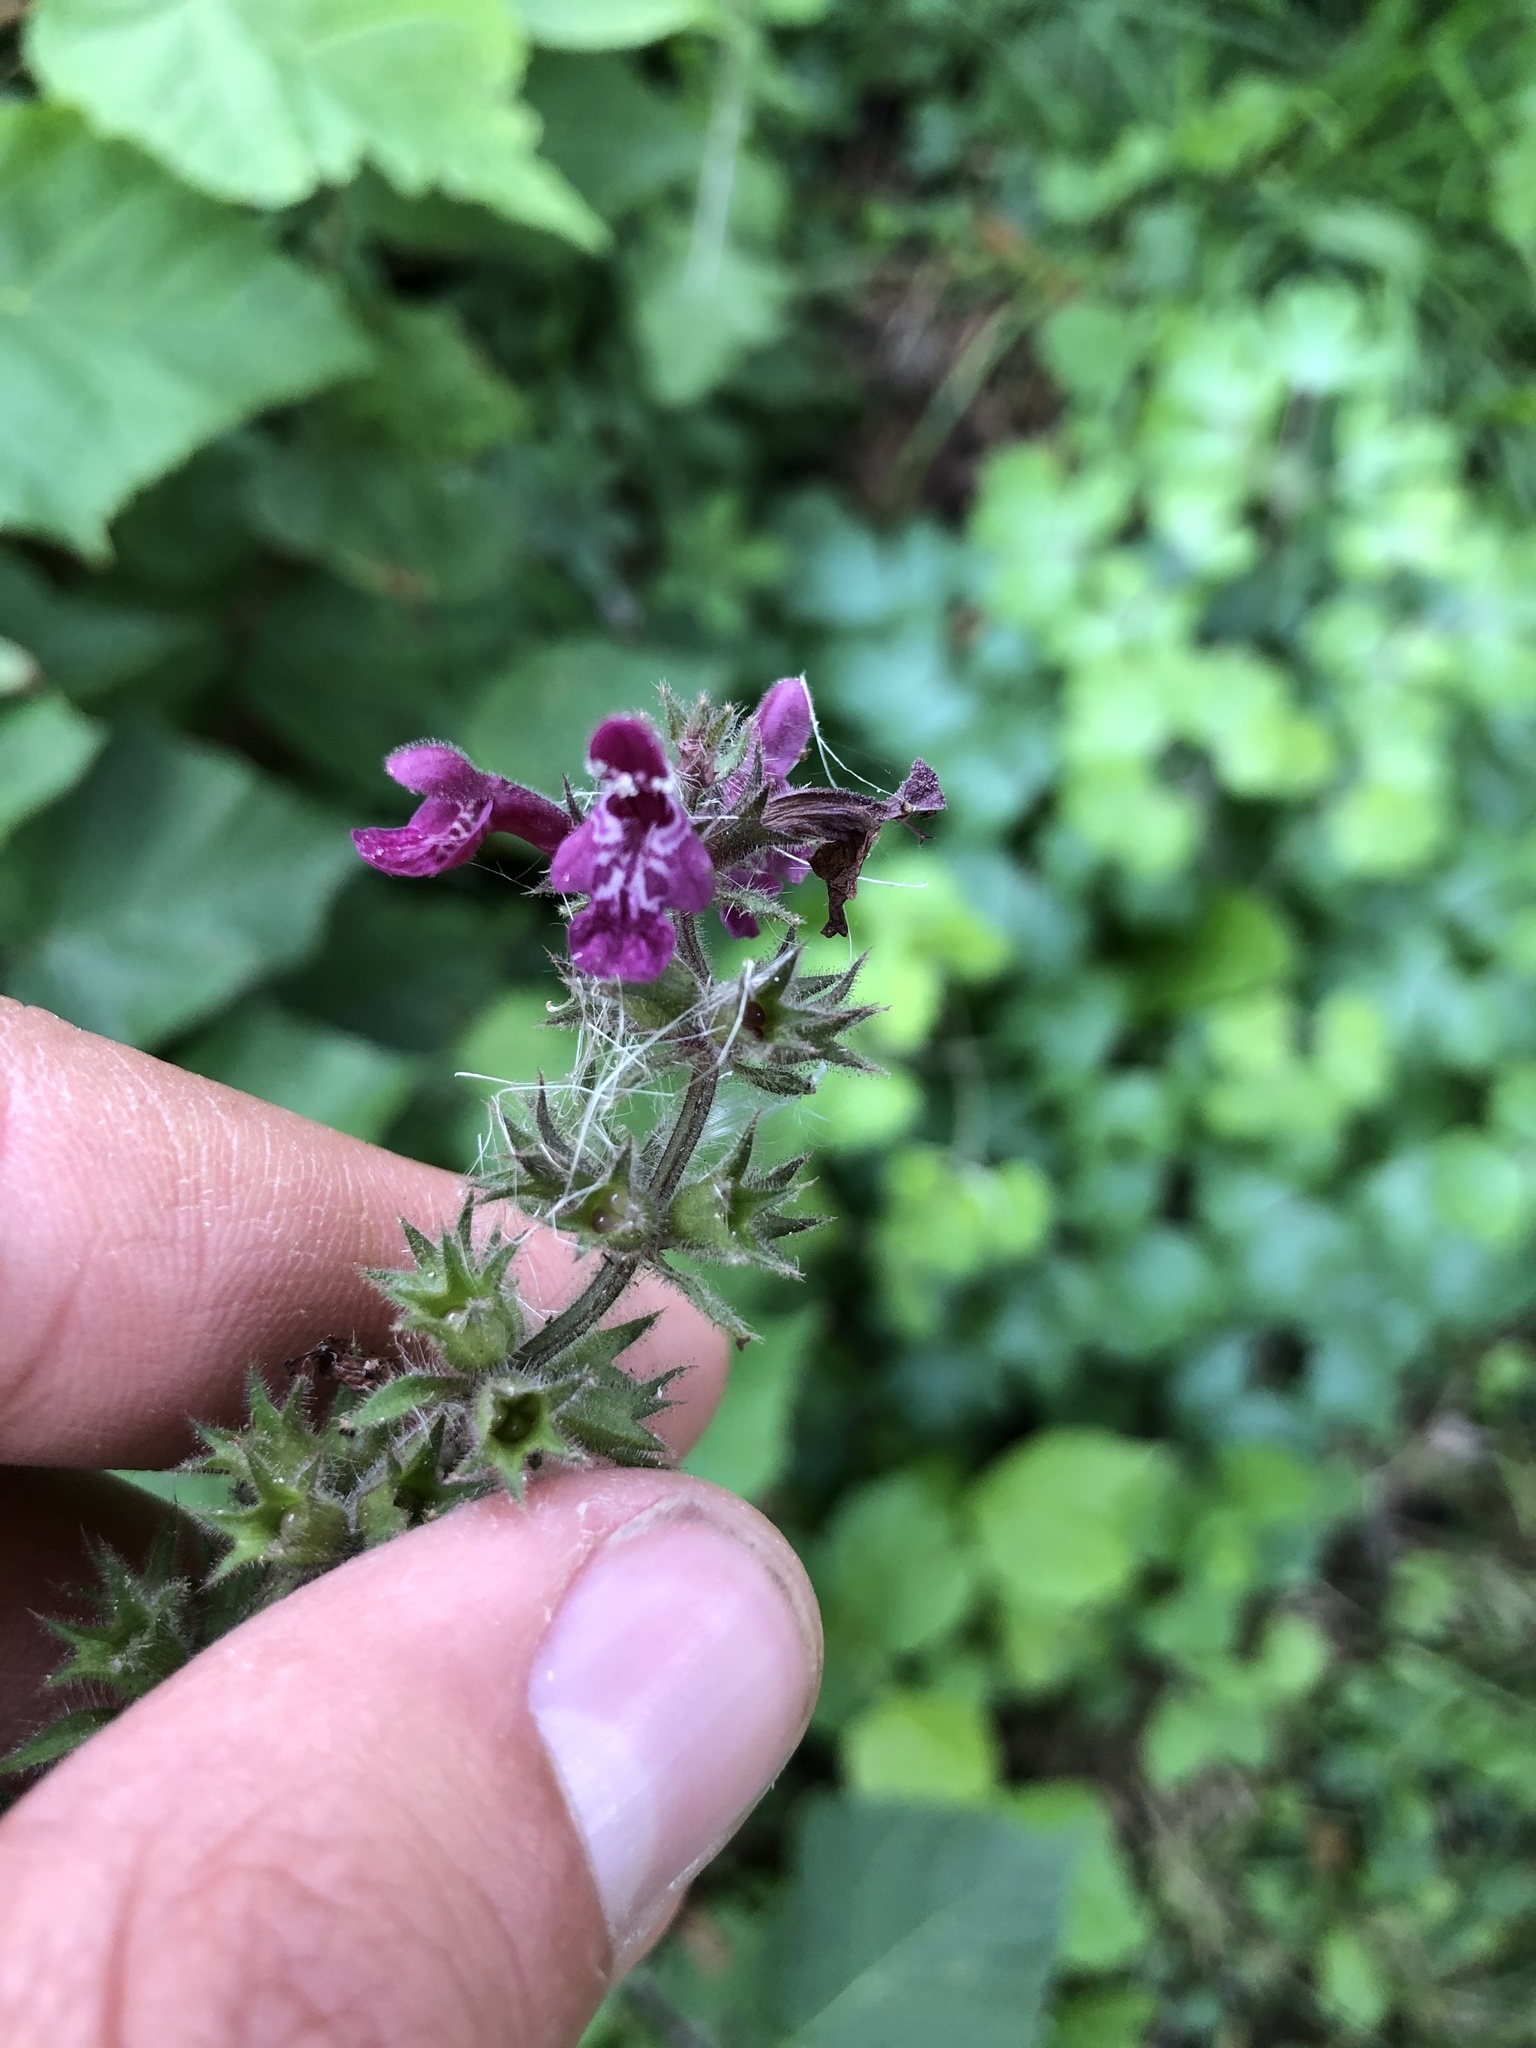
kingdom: Plantae
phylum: Tracheophyta
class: Magnoliopsida
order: Lamiales
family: Lamiaceae
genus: Stachys
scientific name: Stachys sylvatica
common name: Hedge woundwort
